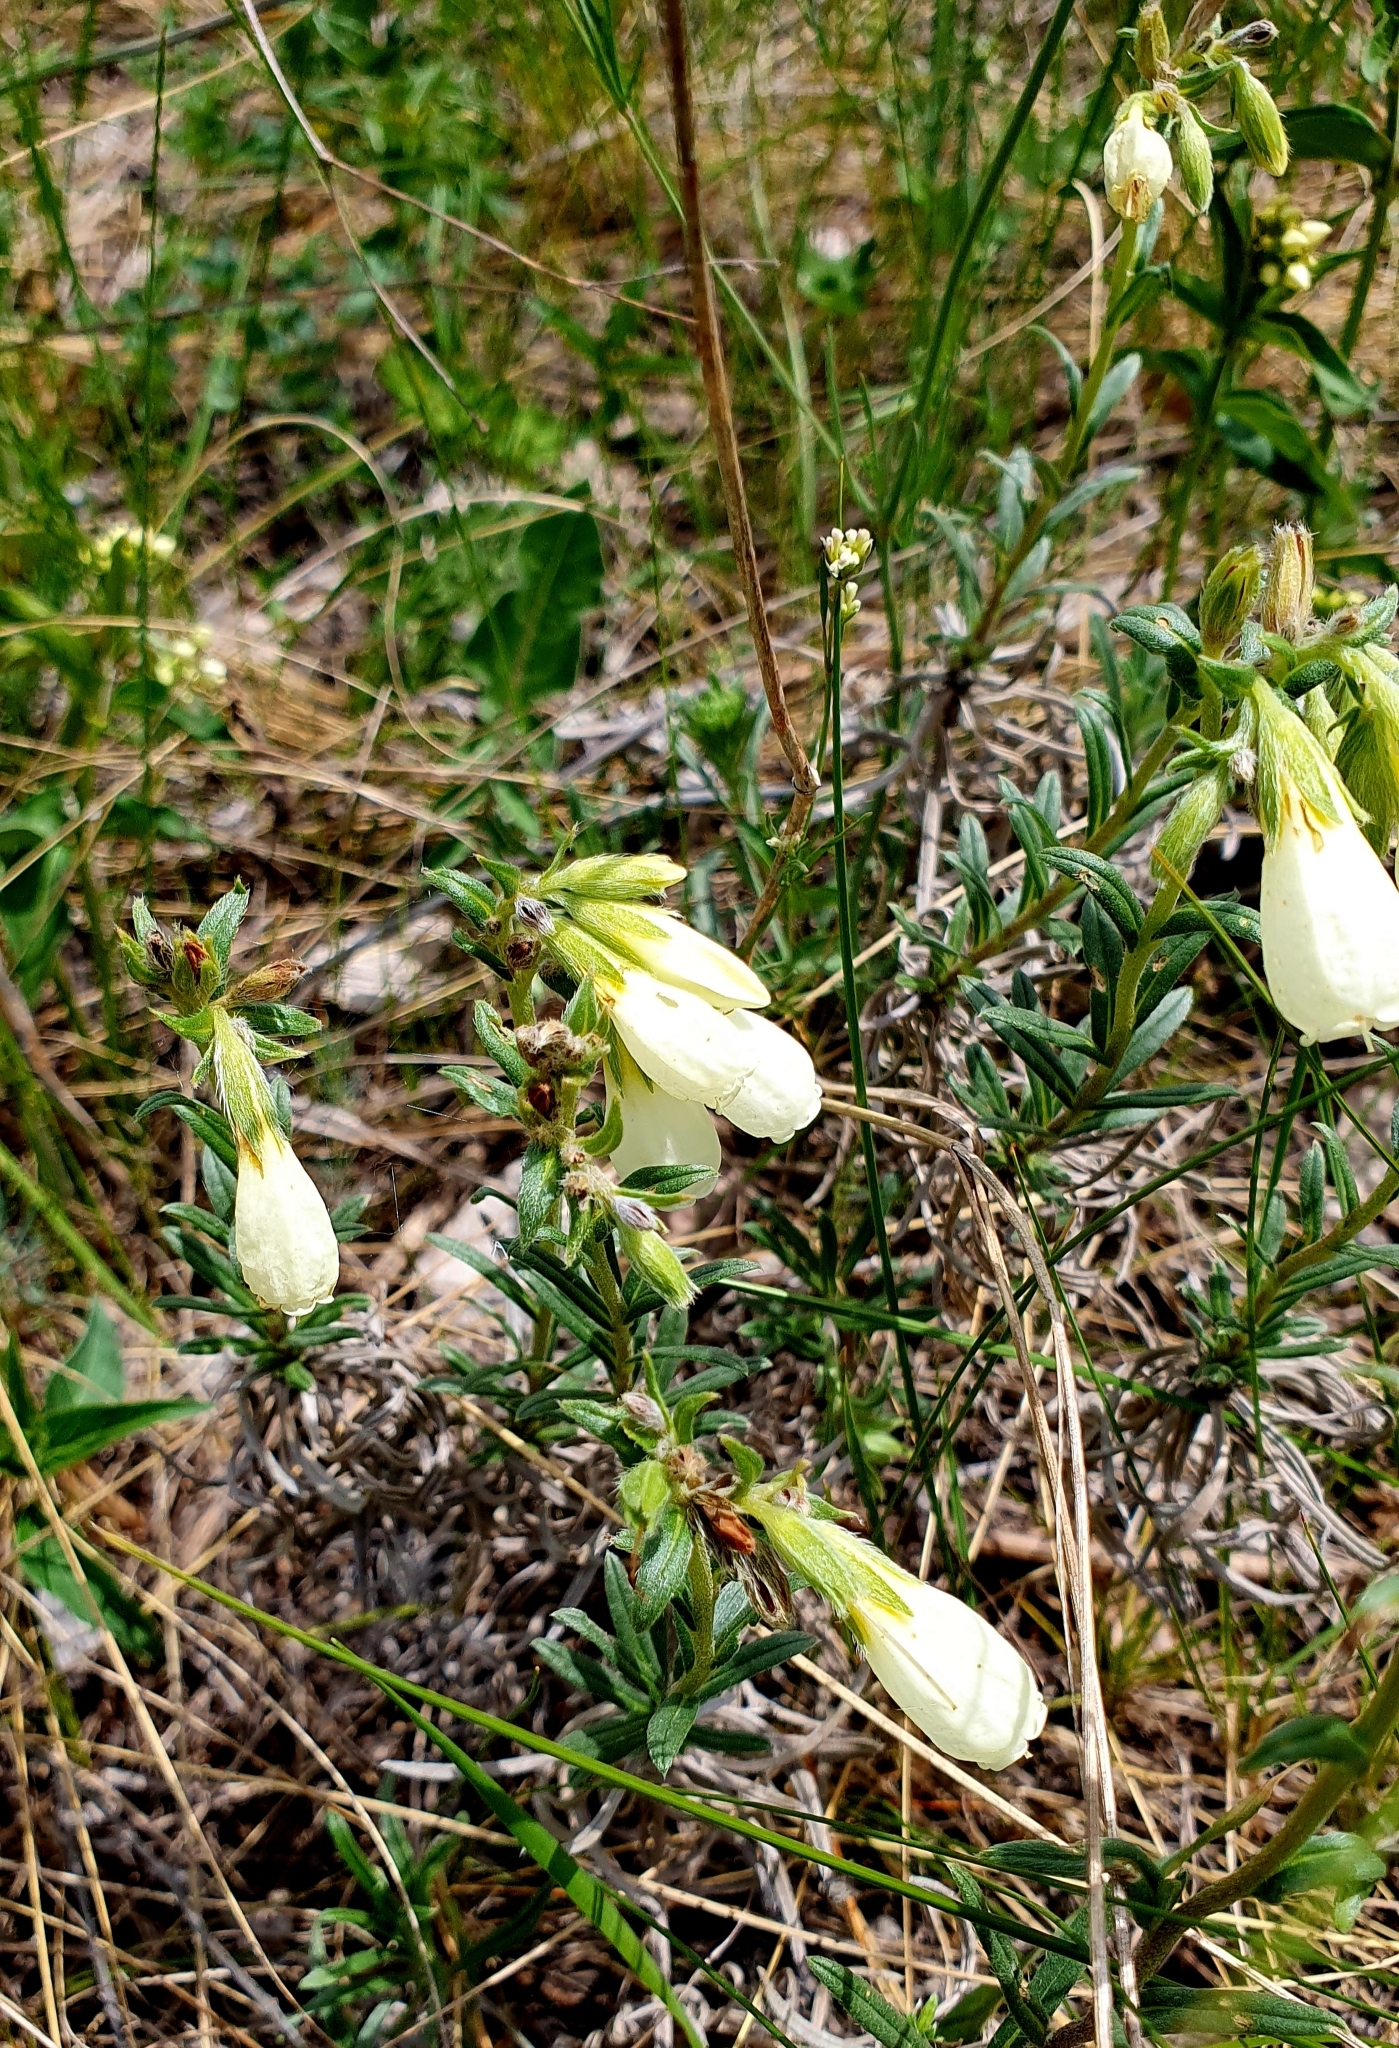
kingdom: Plantae
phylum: Tracheophyta
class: Magnoliopsida
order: Boraginales
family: Boraginaceae
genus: Onosma
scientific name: Onosma simplicissima
